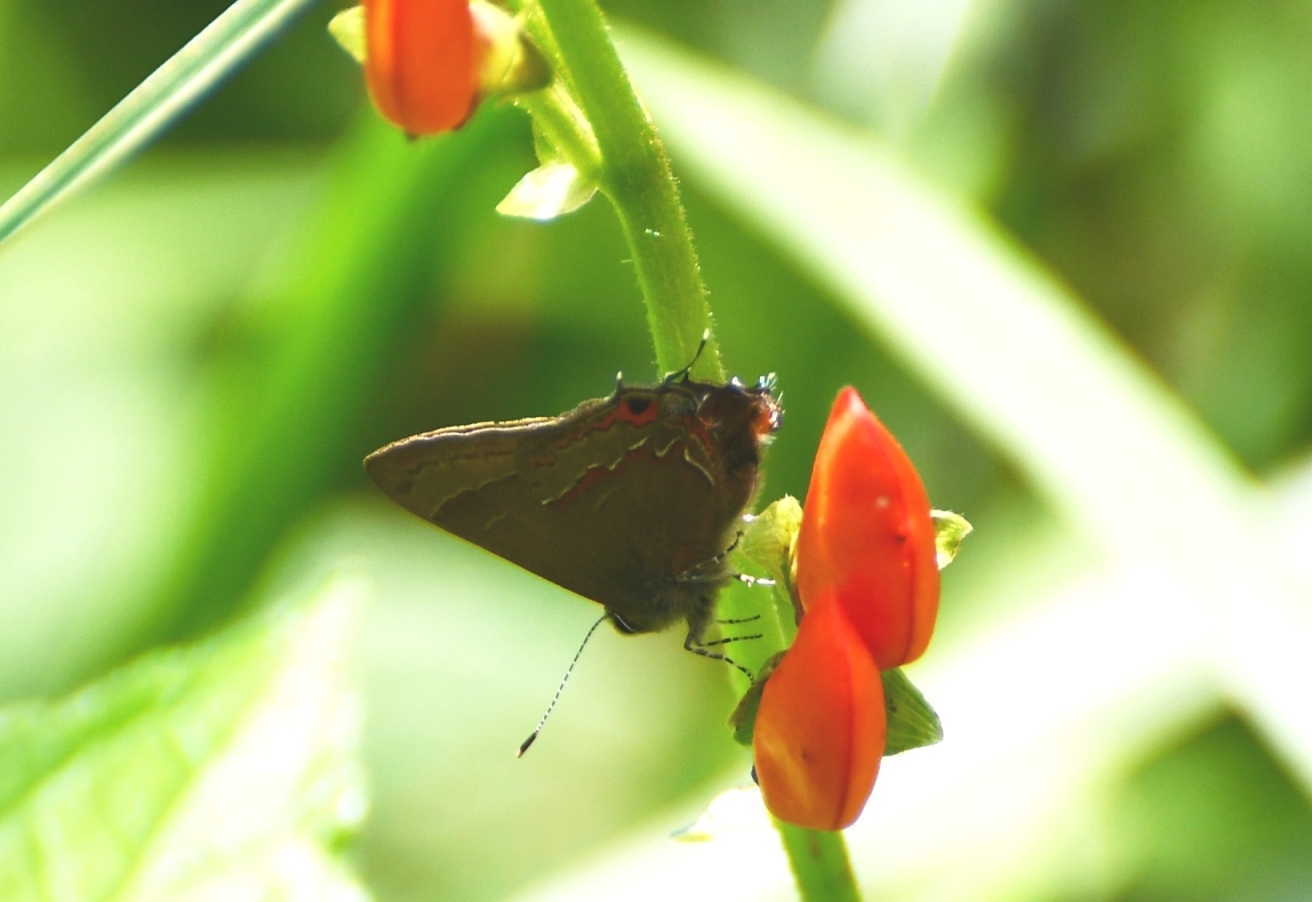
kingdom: Animalia
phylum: Arthropoda
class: Insecta
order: Lepidoptera
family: Lycaenidae
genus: Electrostrymon
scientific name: Electrostrymon
